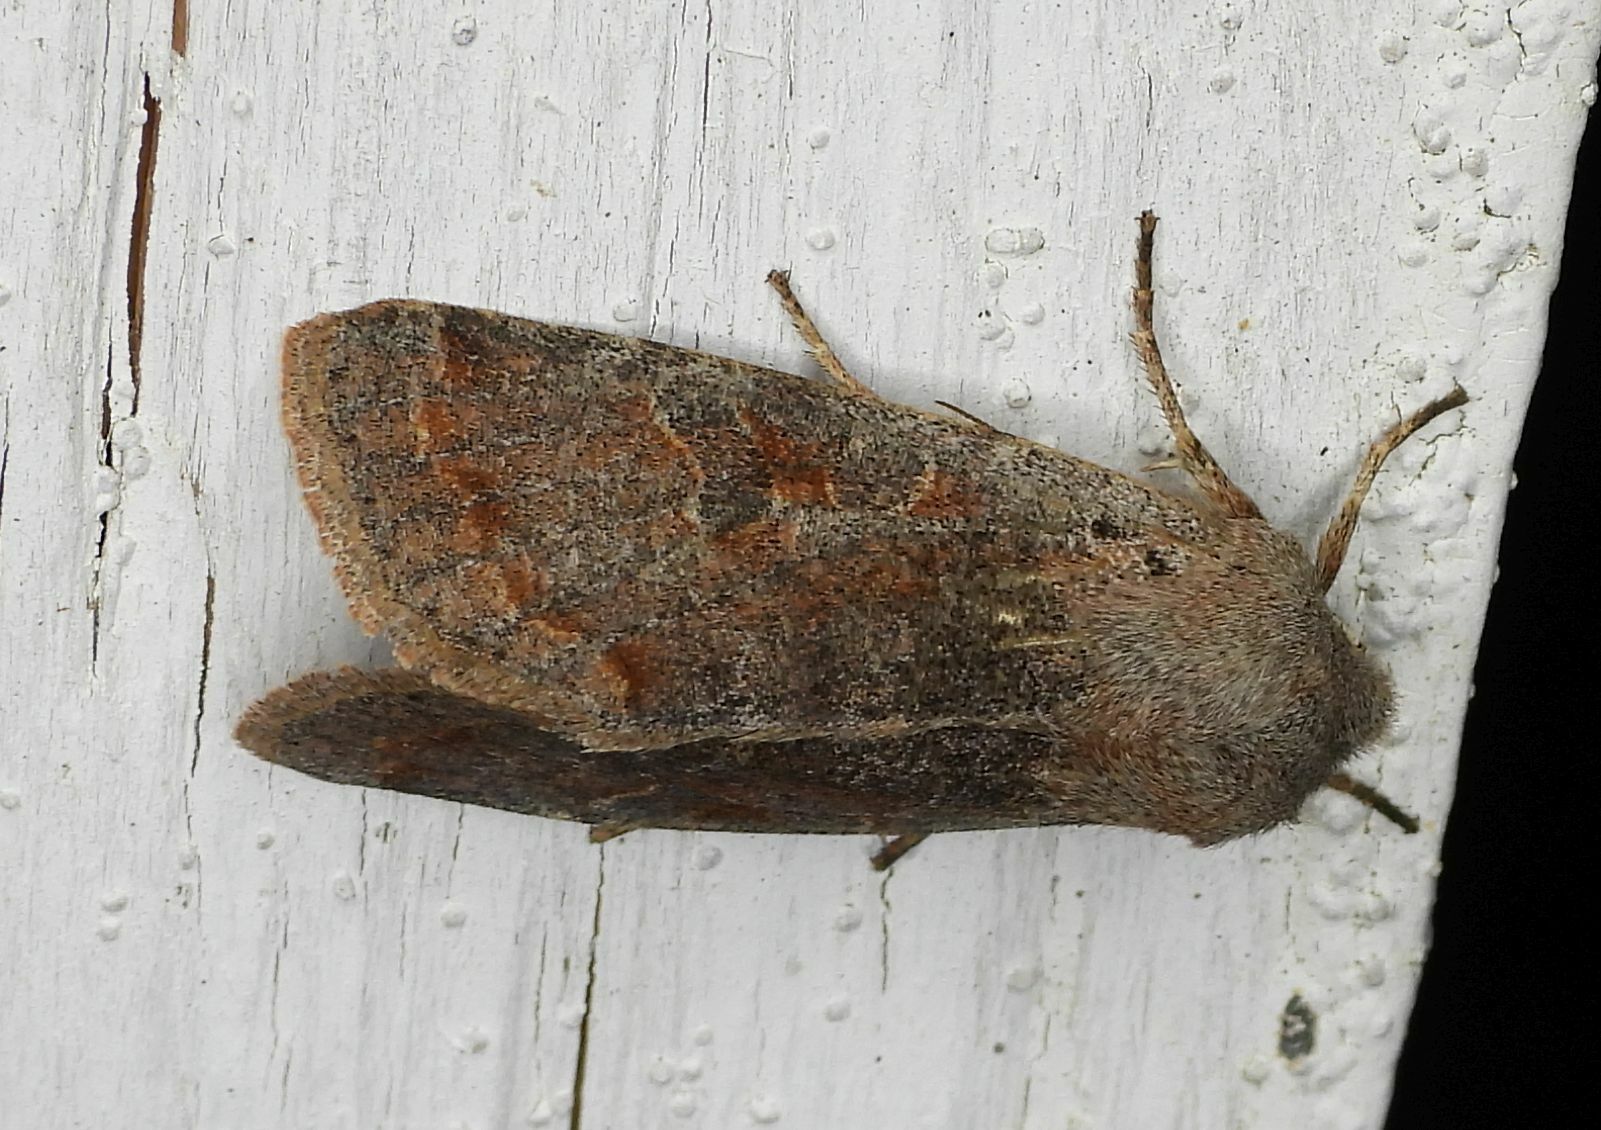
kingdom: Animalia
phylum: Arthropoda
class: Insecta
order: Lepidoptera
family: Noctuidae
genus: Orthosia
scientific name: Orthosia hibisci
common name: Green fruitworm
